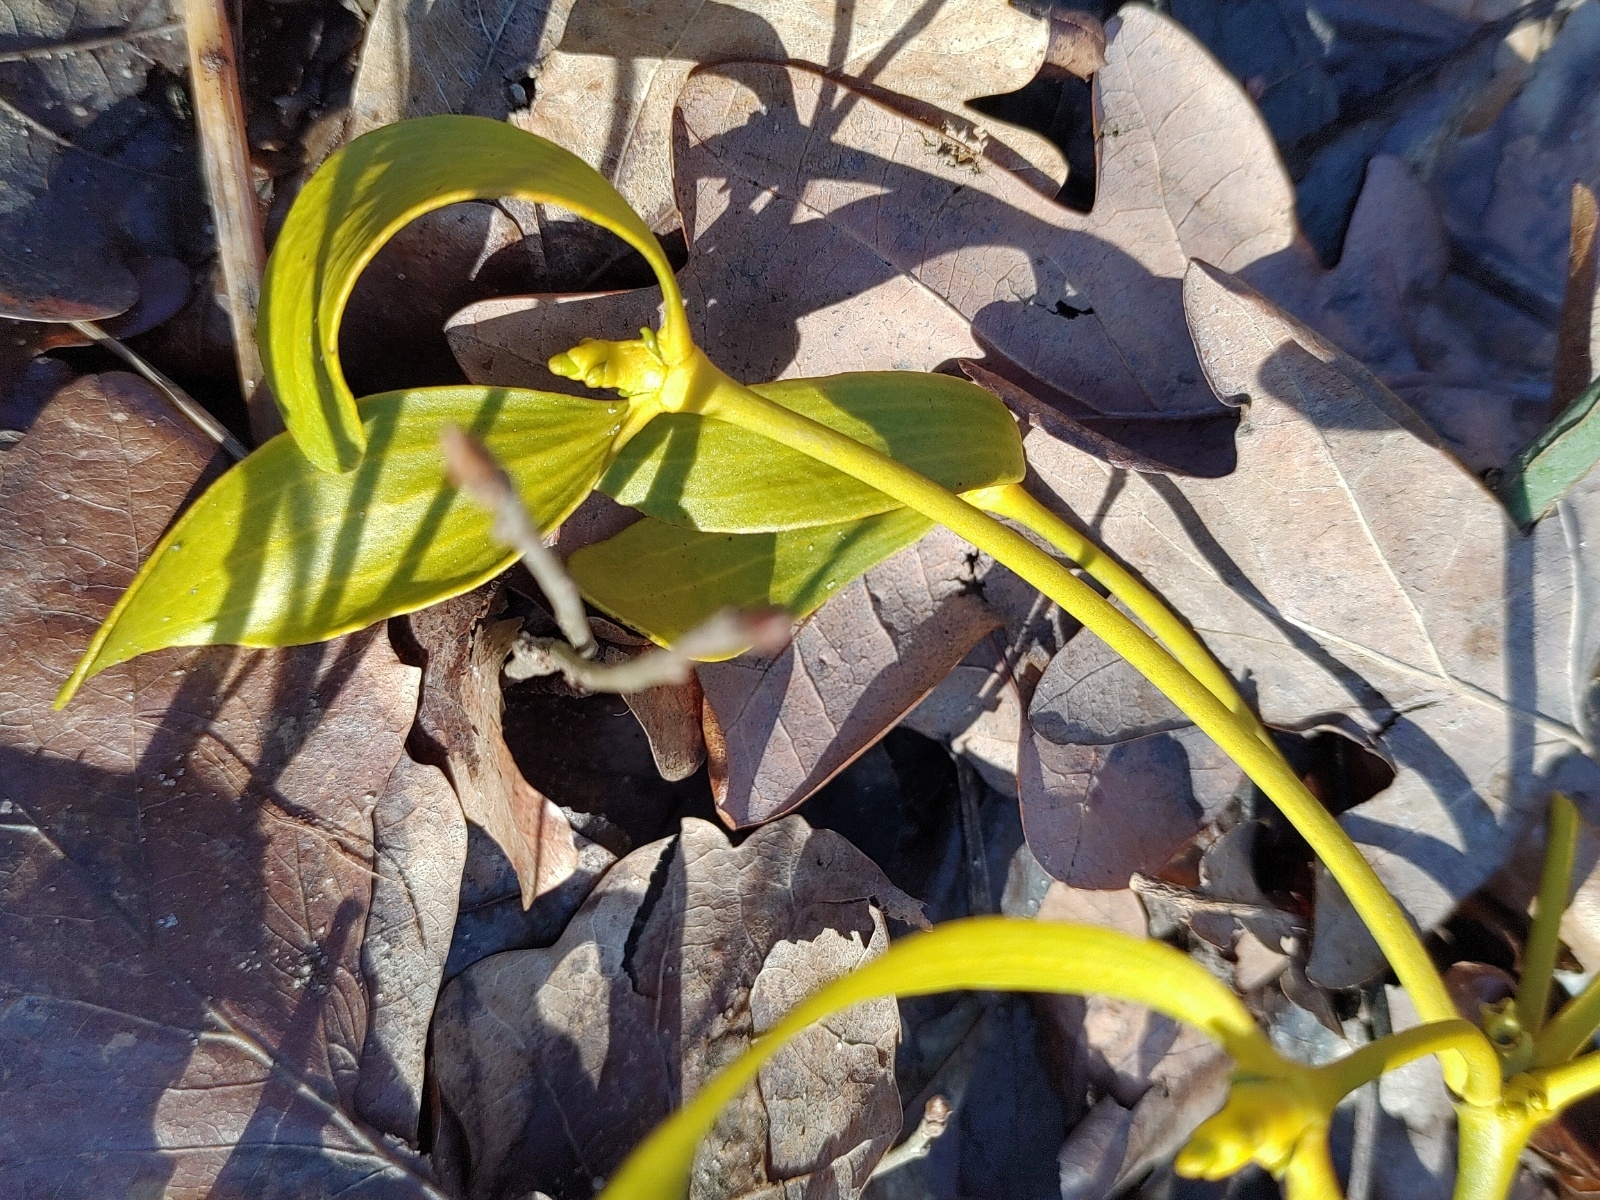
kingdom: Plantae
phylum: Tracheophyta
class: Magnoliopsida
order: Santalales
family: Viscaceae
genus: Viscum
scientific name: Viscum album
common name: Mistletoe
